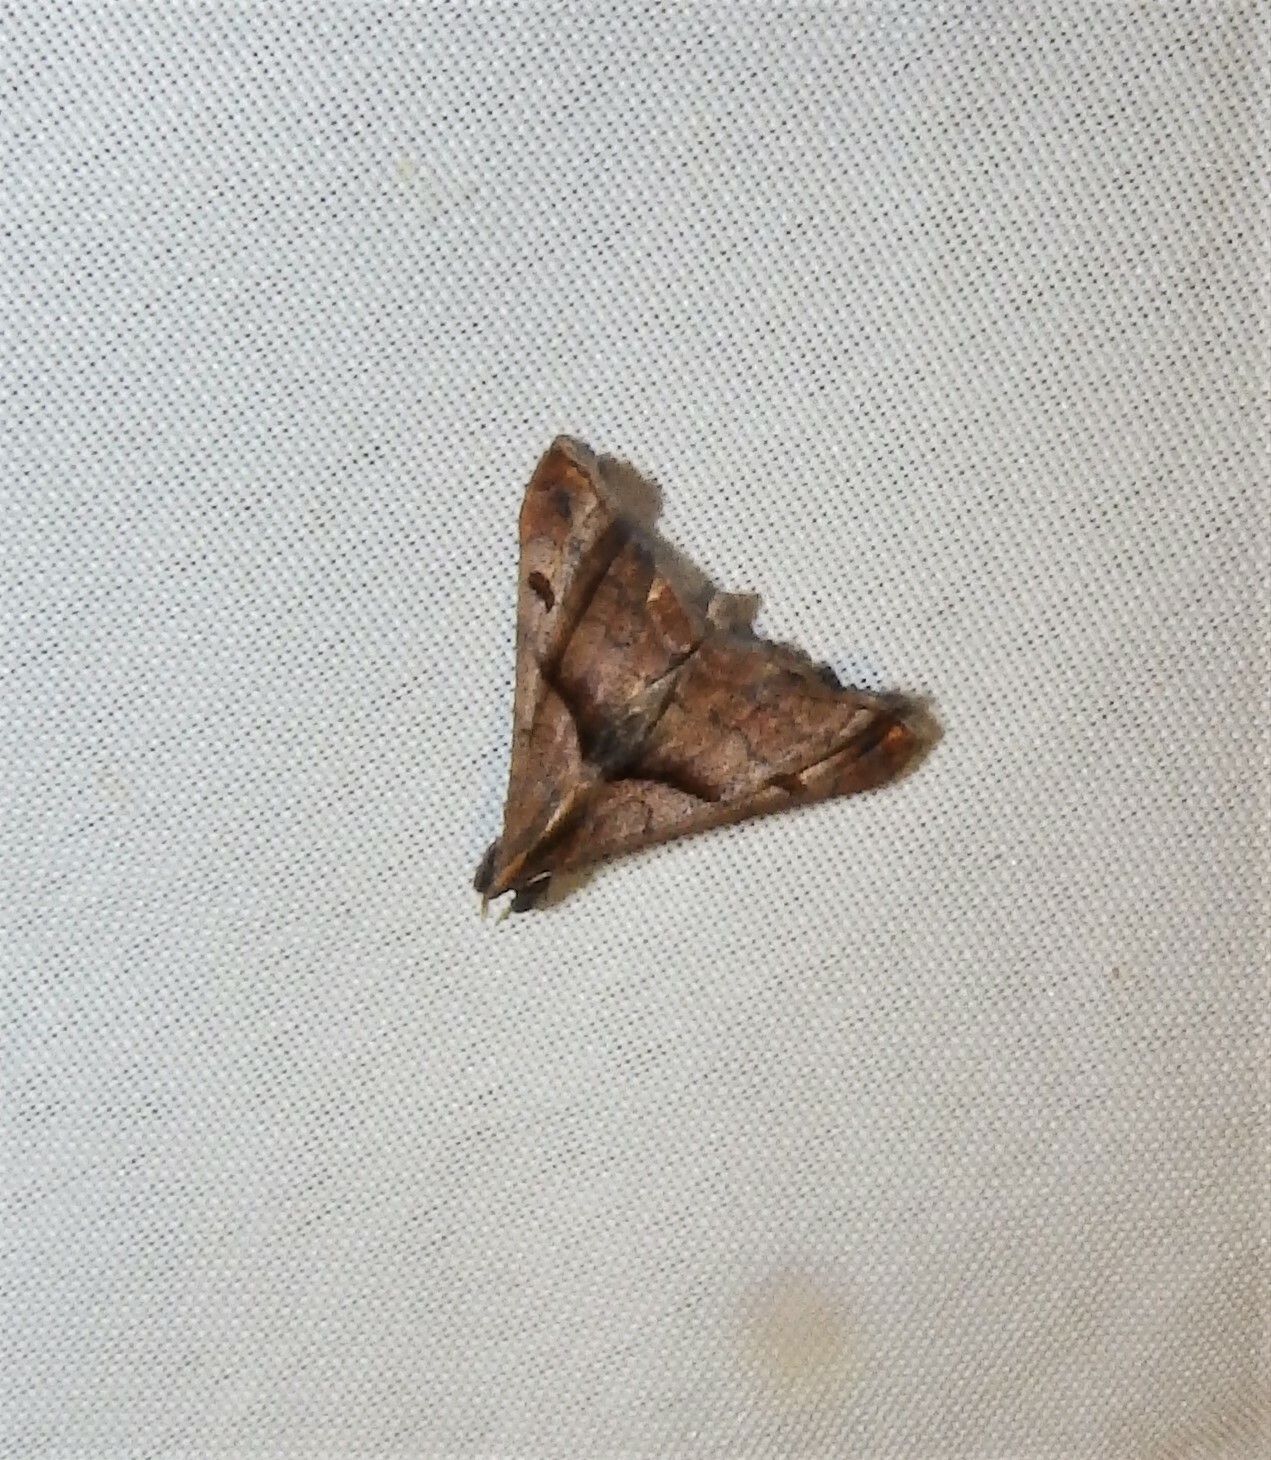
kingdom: Animalia
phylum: Arthropoda
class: Insecta
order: Lepidoptera
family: Erebidae
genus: Palthis
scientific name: Palthis angulalis
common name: Dark-spotted palthis moth
